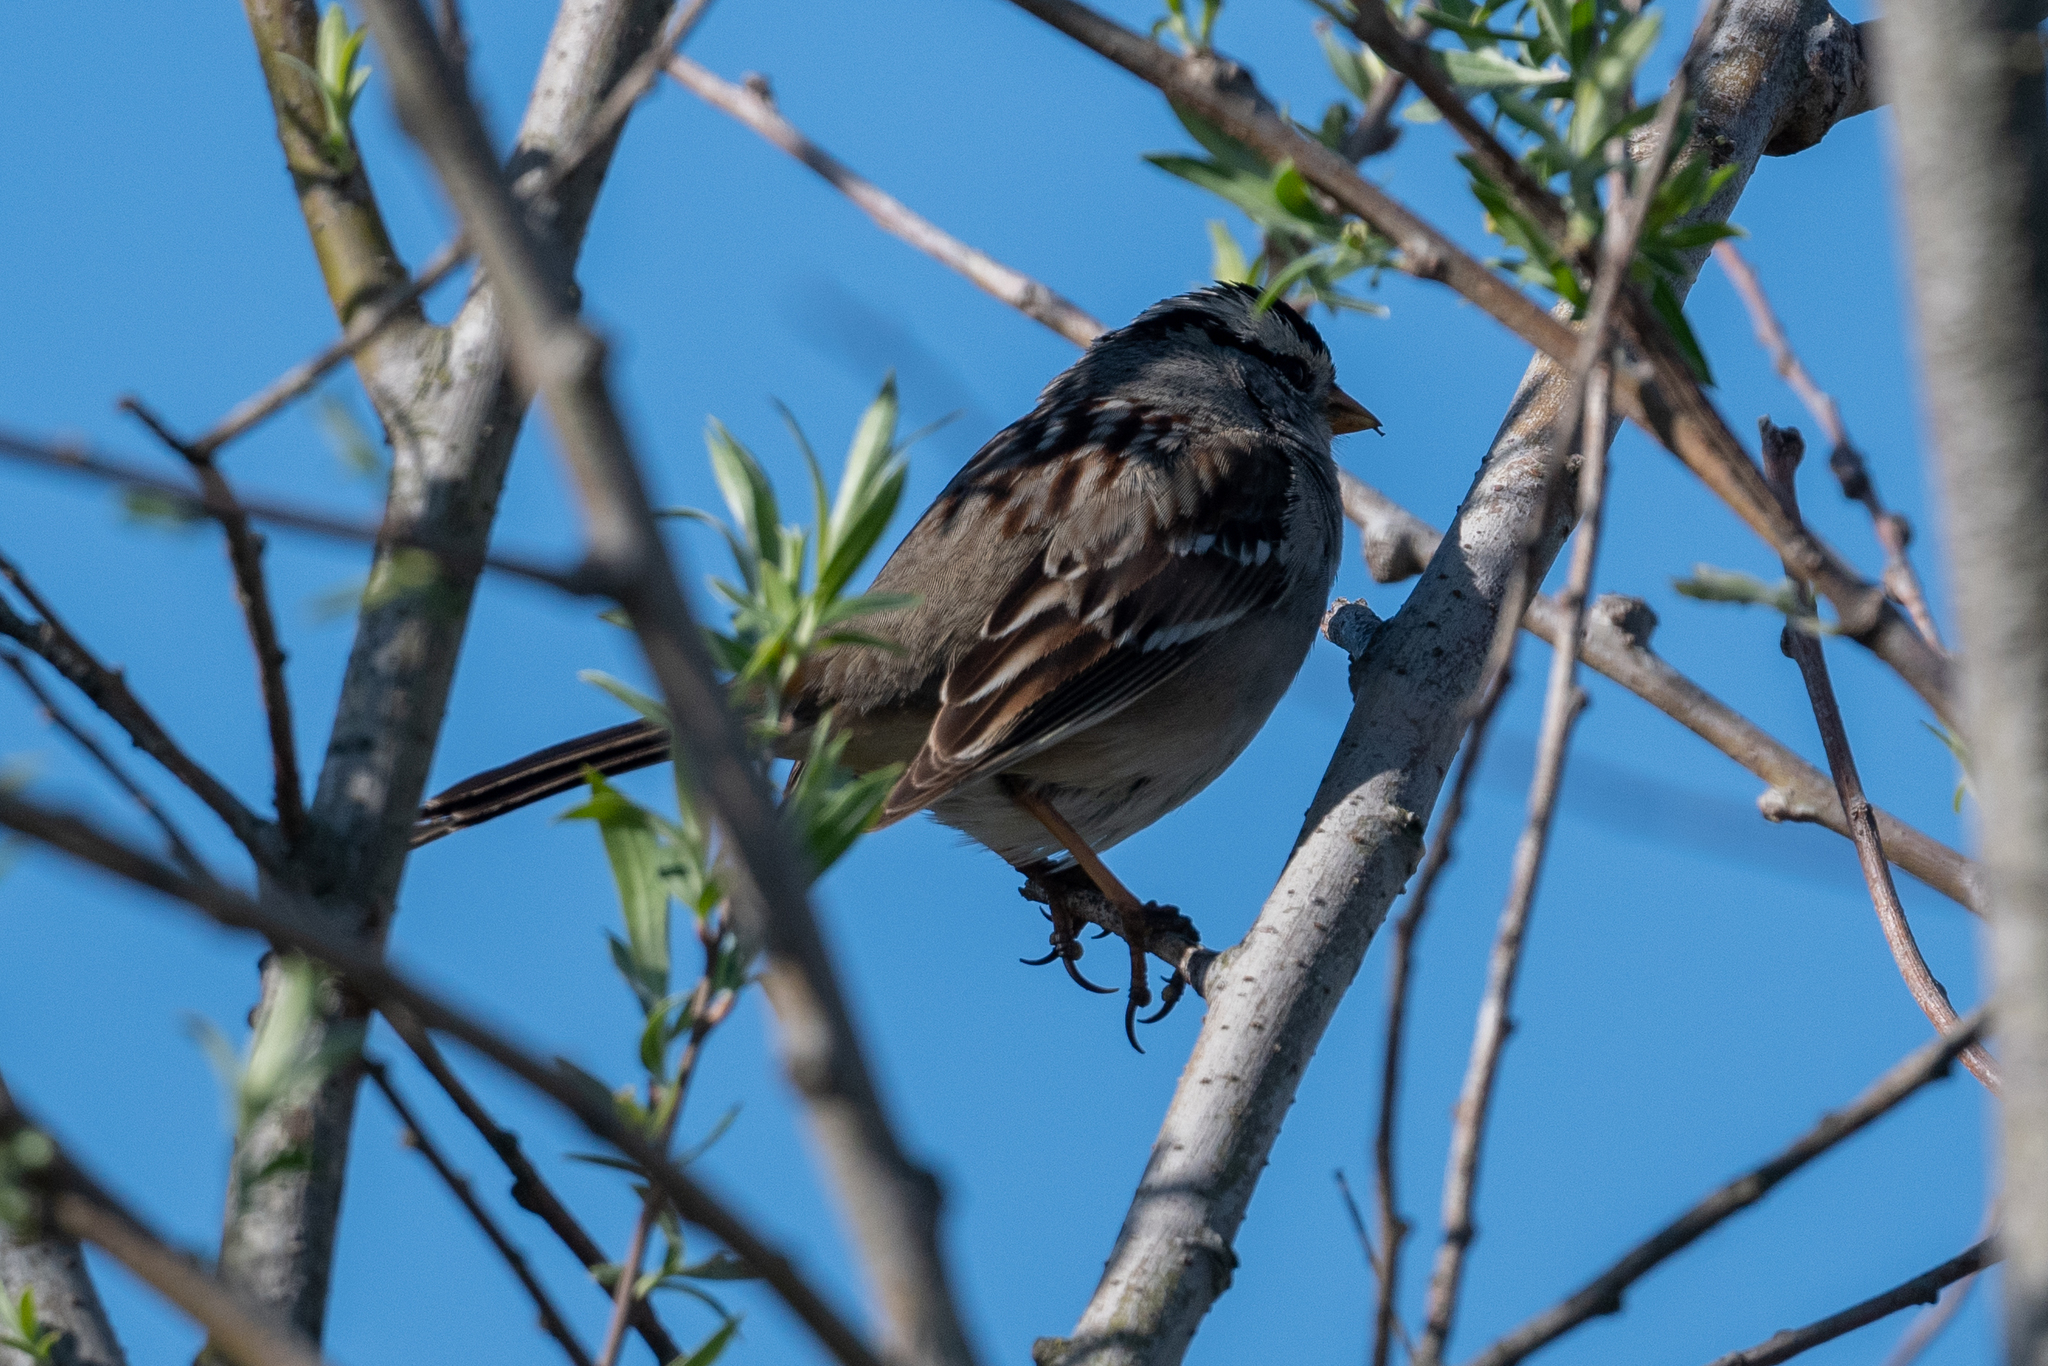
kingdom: Animalia
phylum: Chordata
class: Aves
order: Passeriformes
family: Passerellidae
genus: Zonotrichia
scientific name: Zonotrichia leucophrys
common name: White-crowned sparrow
